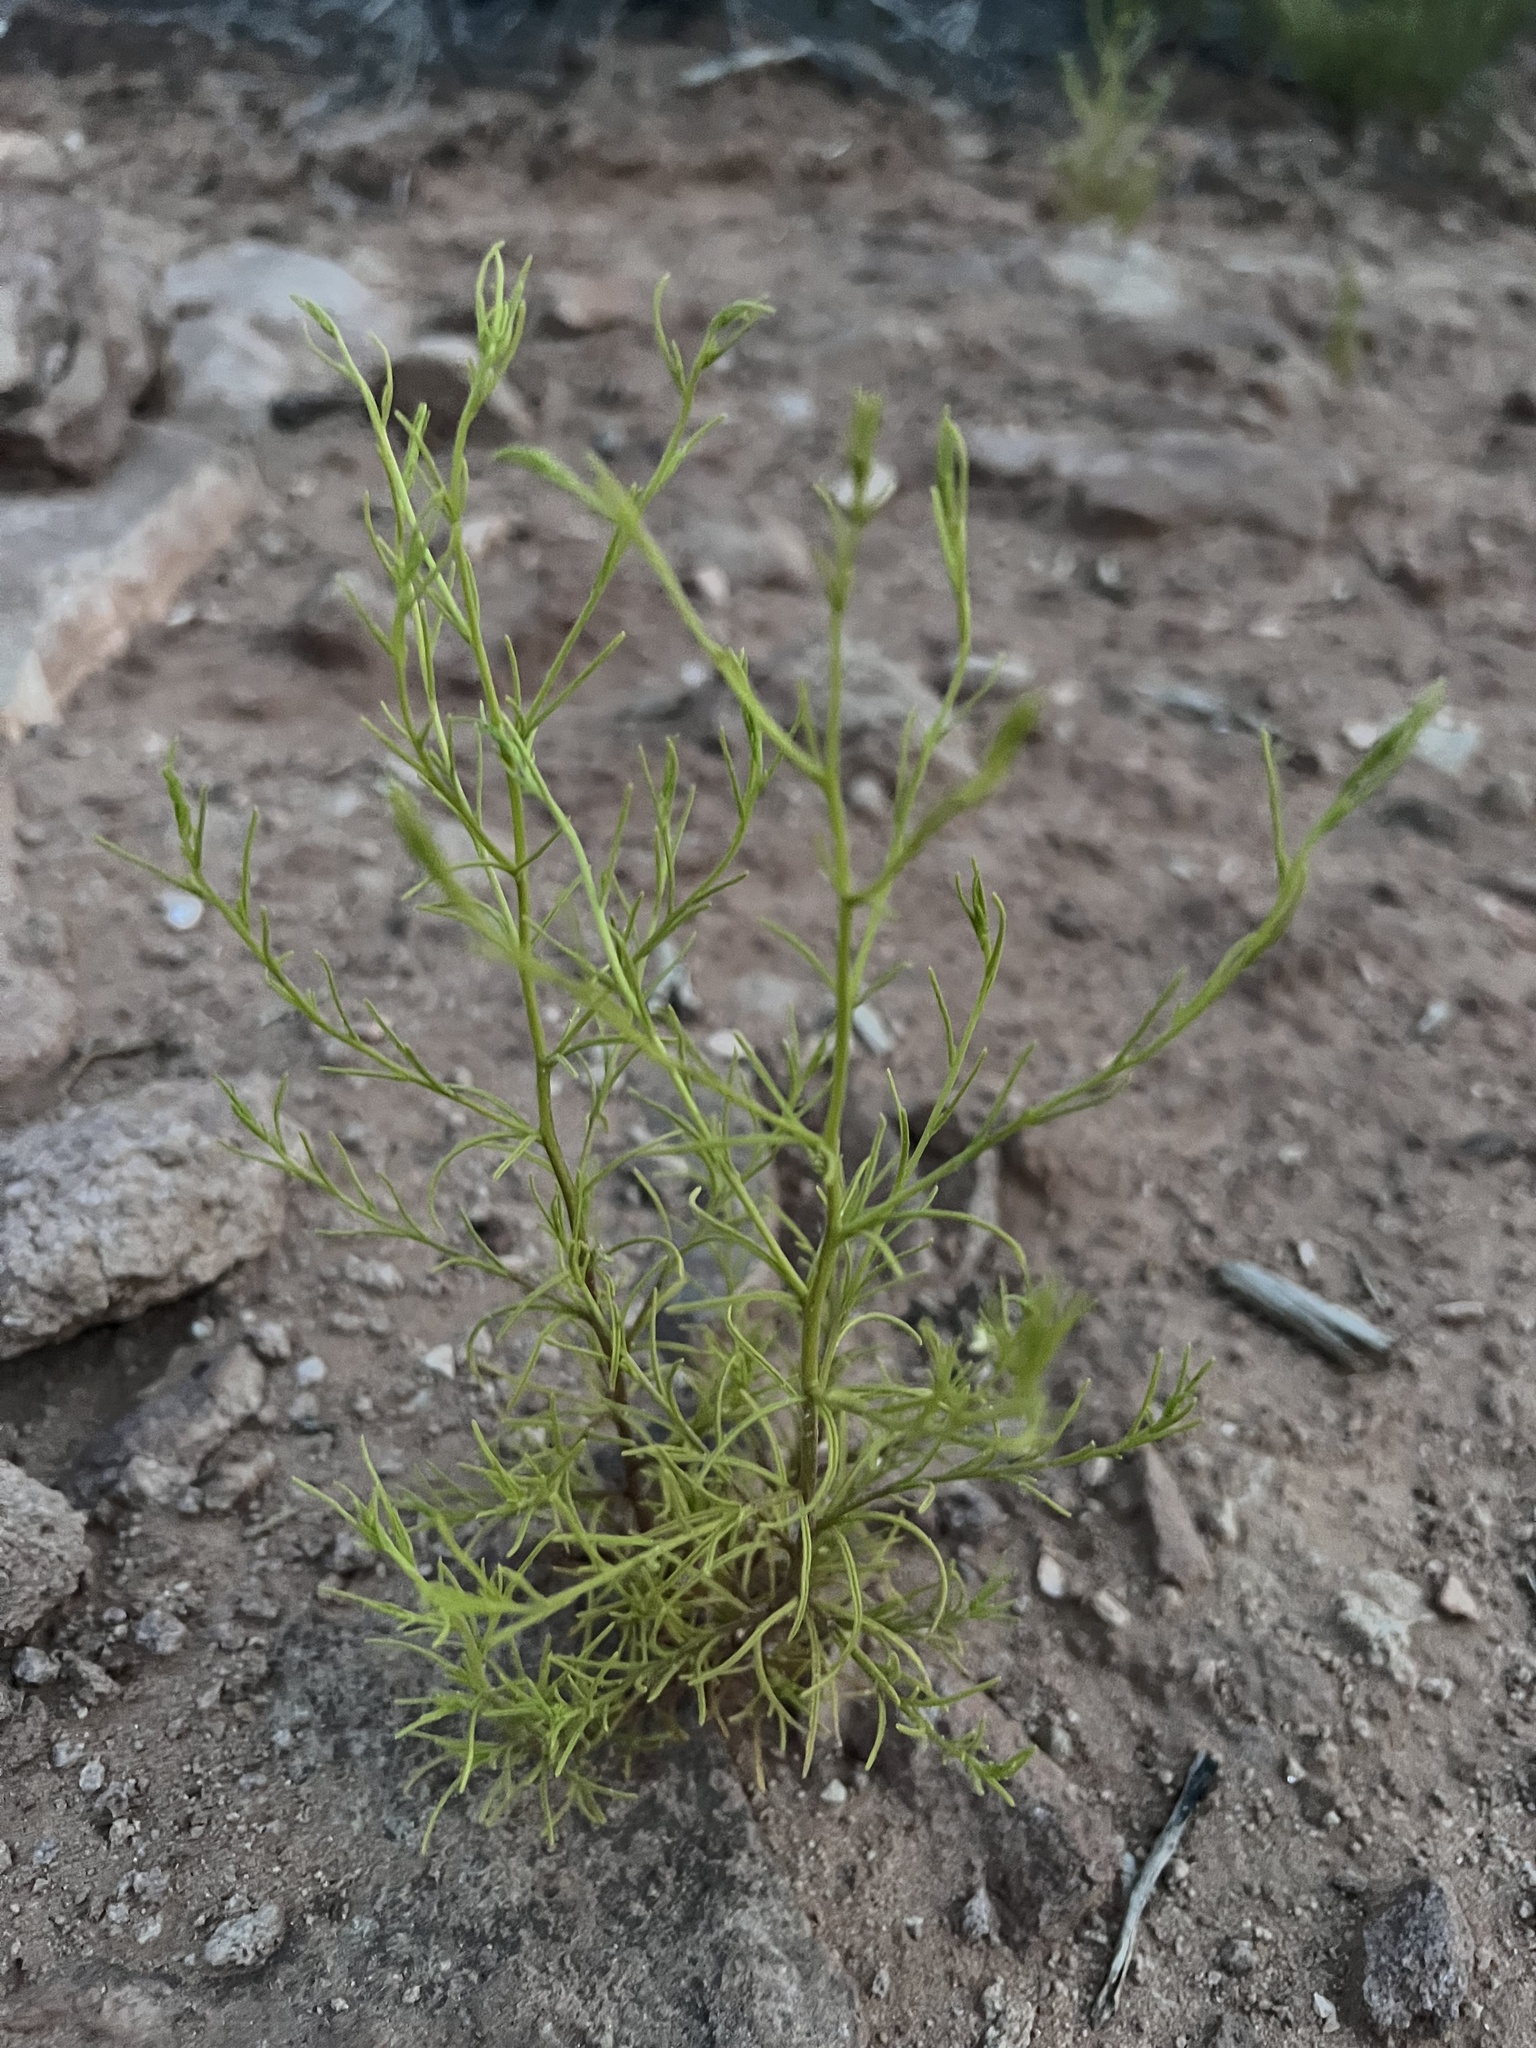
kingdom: Plantae
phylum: Tracheophyta
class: Magnoliopsida
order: Lamiales
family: Orobanchaceae
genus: Cordylanthus
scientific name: Cordylanthus wrightii
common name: Wright's birdsbeak
